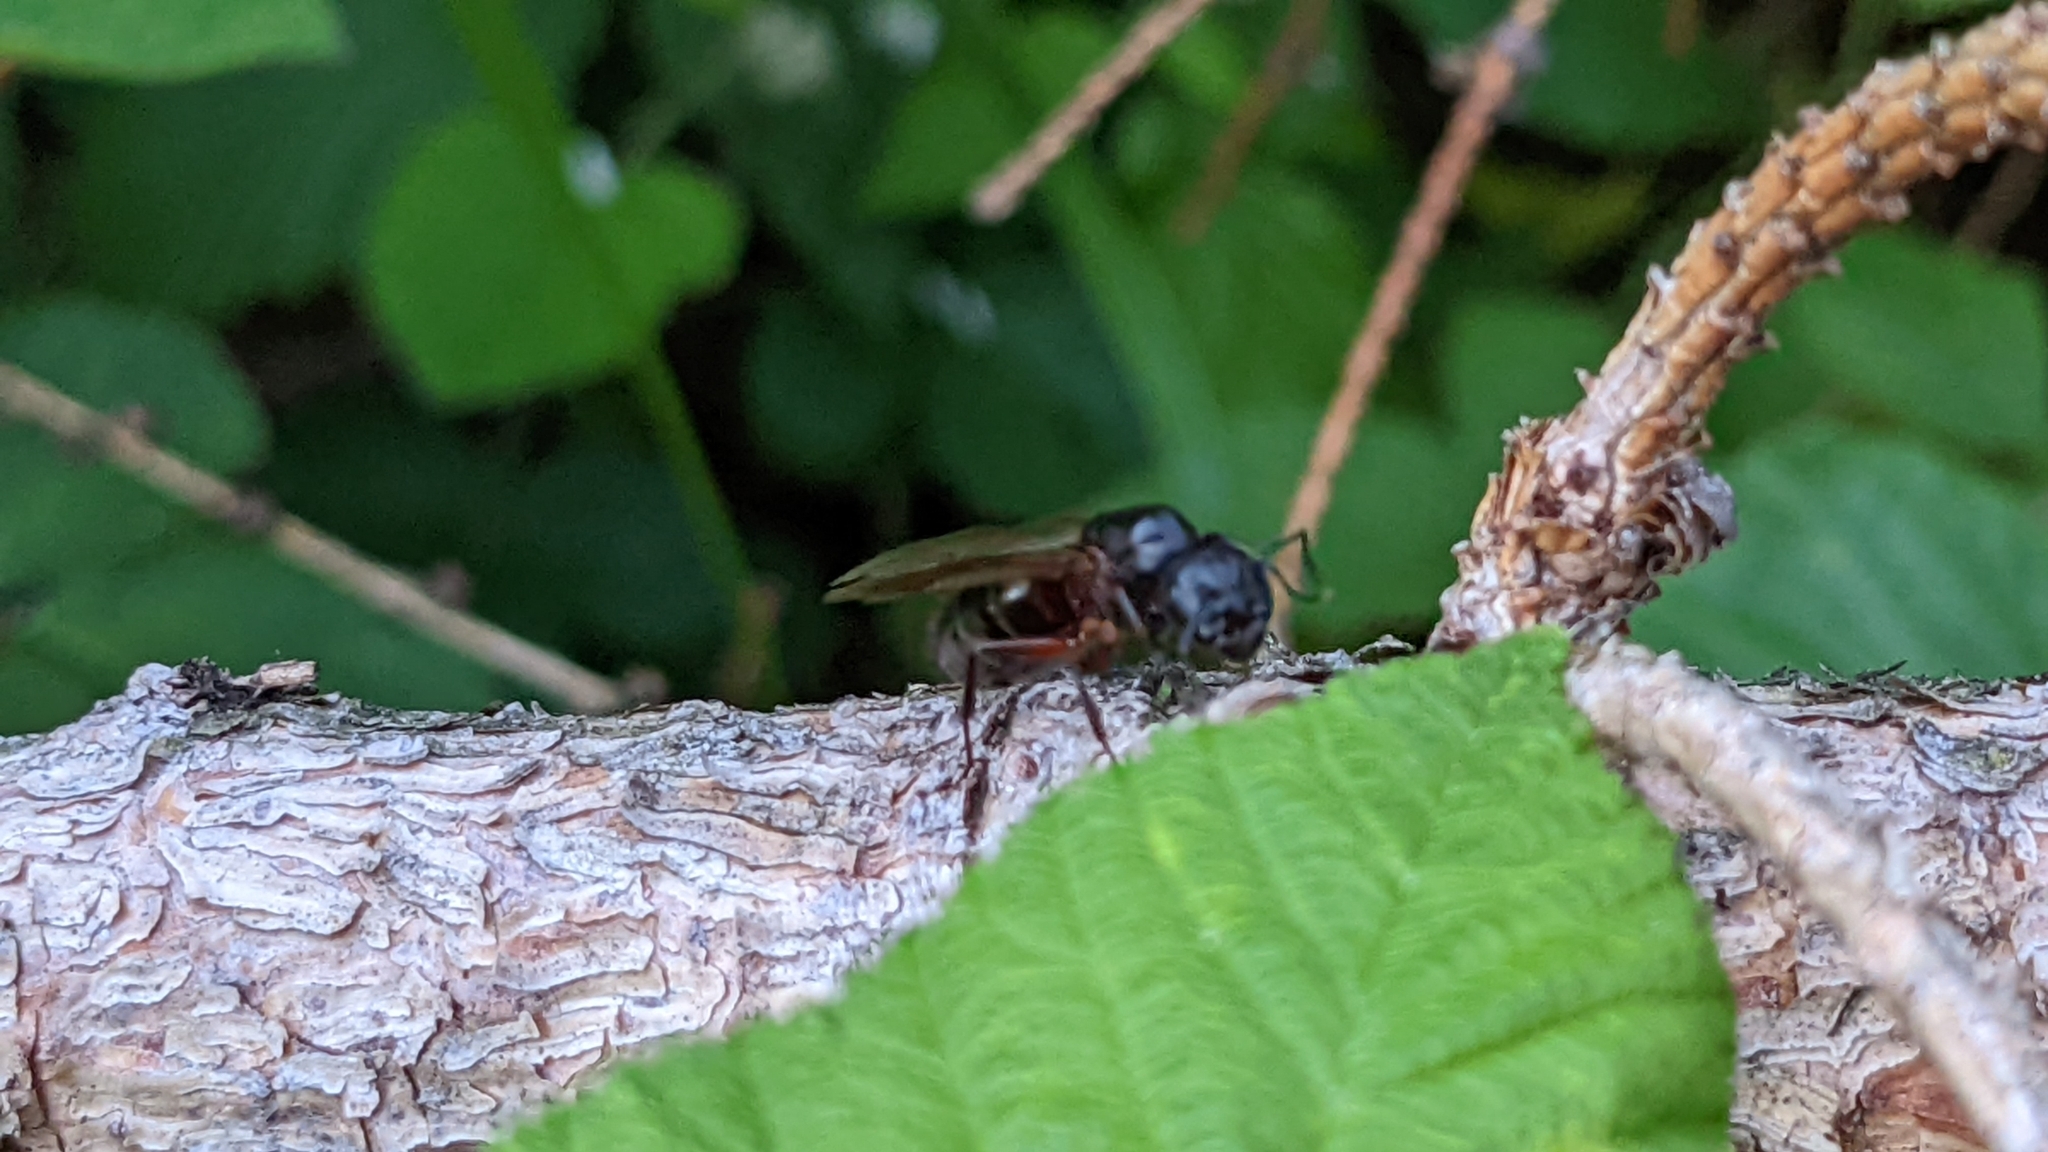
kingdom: Animalia
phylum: Arthropoda
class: Insecta
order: Hymenoptera
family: Formicidae
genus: Camponotus
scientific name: Camponotus ligniperdus
